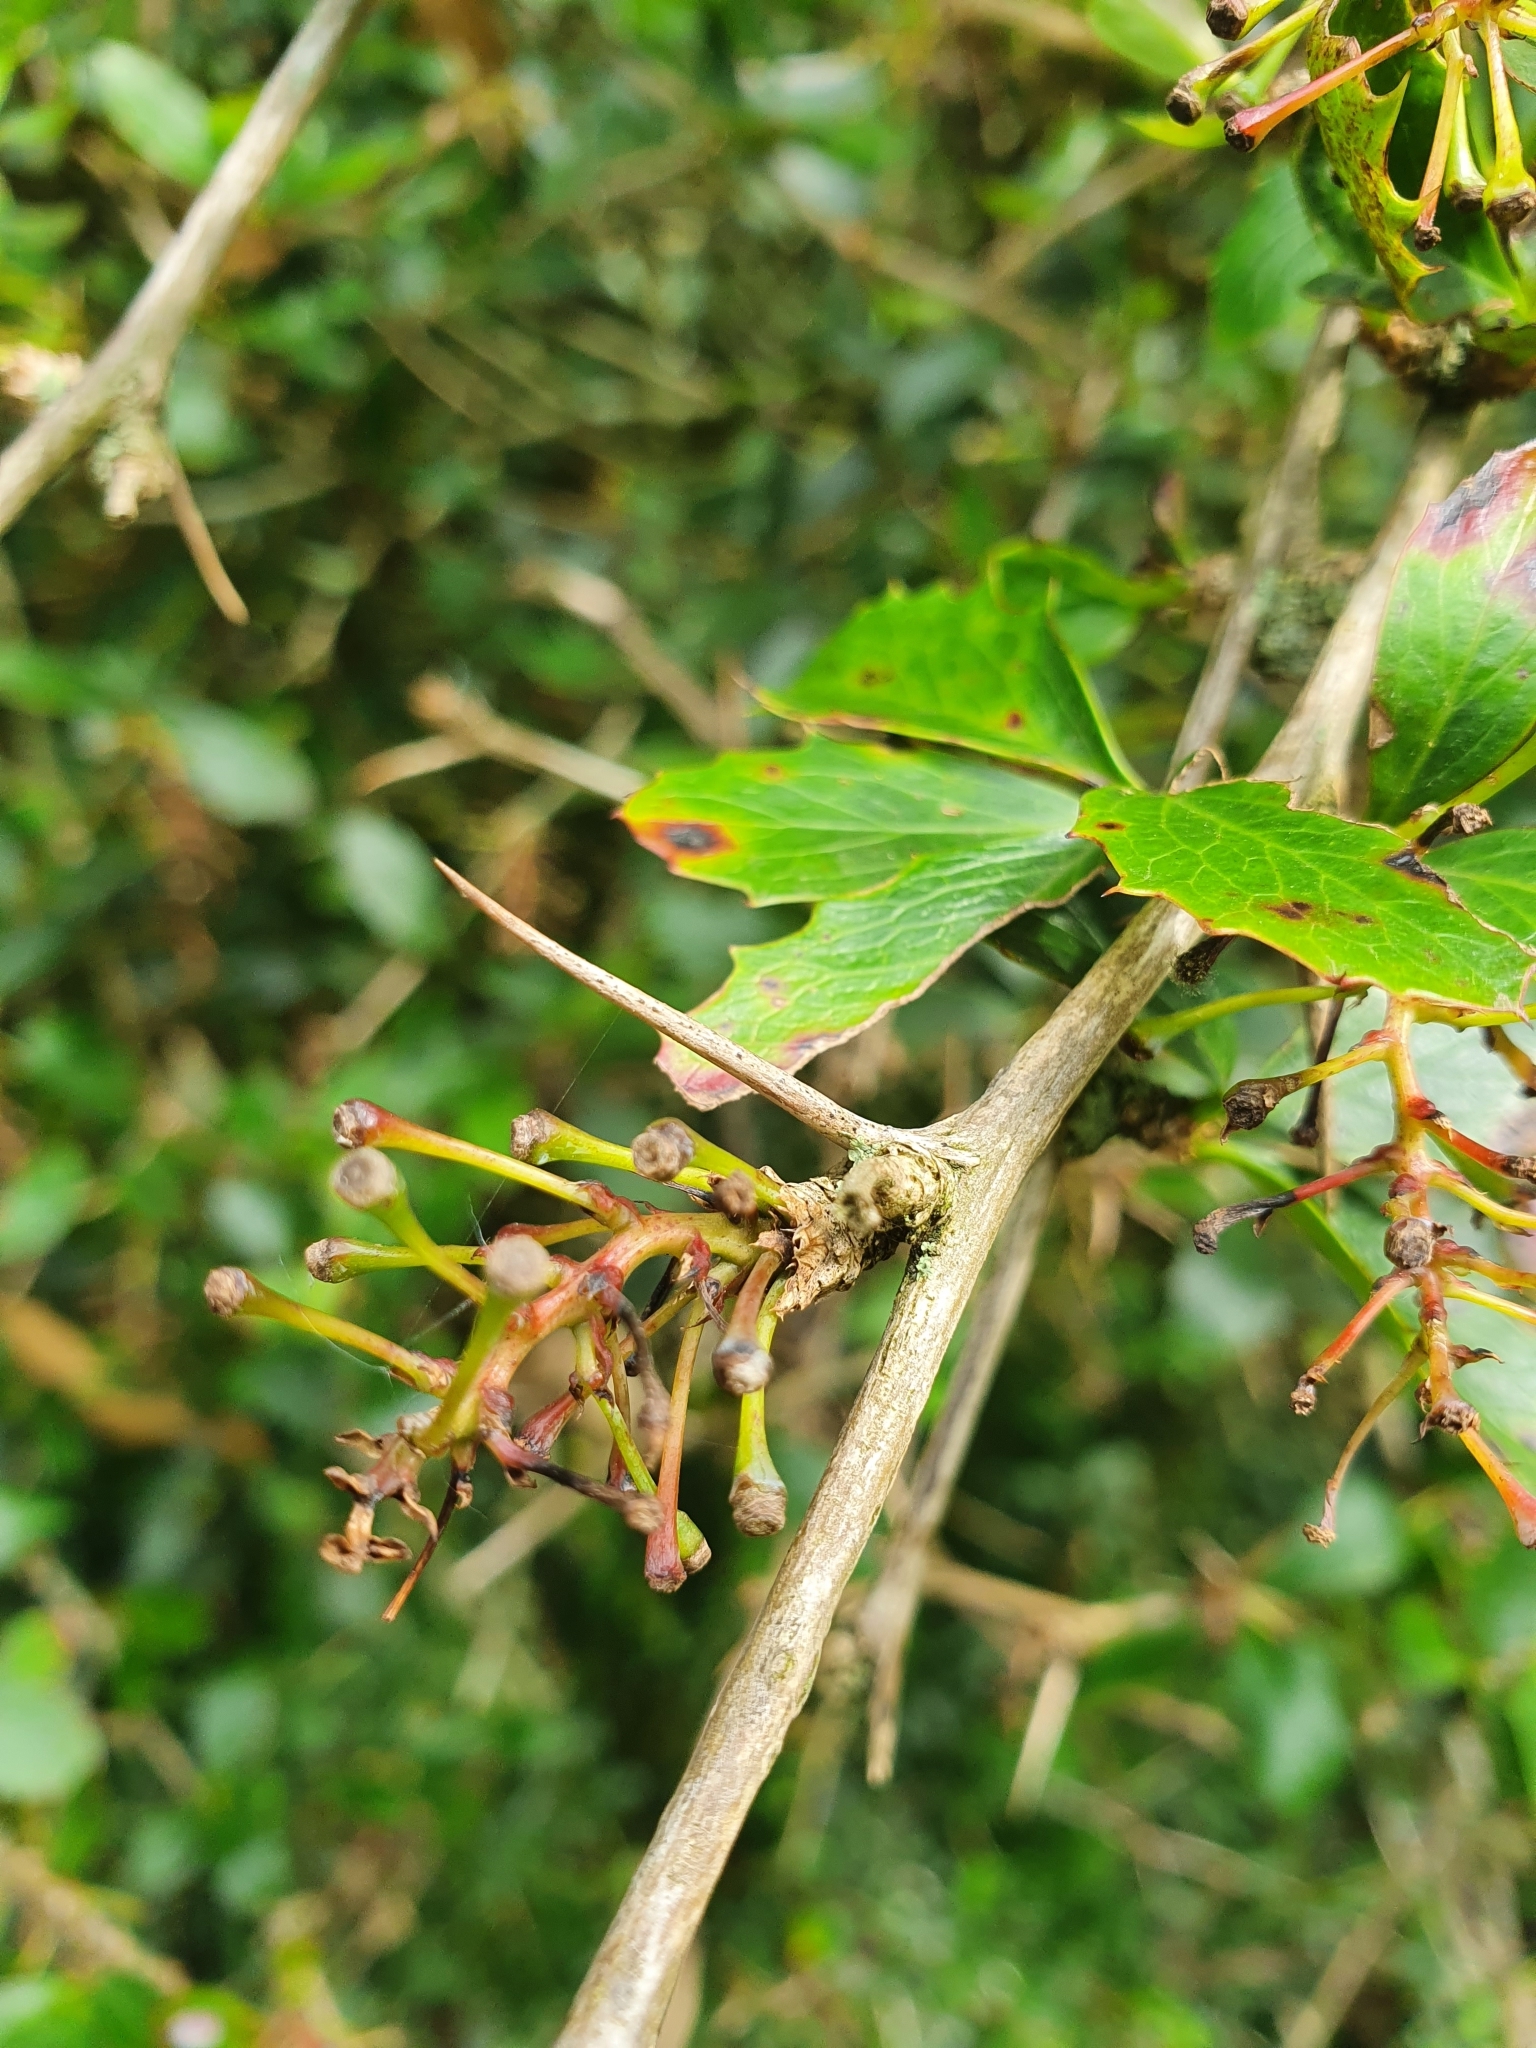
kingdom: Plantae
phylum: Tracheophyta
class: Magnoliopsida
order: Ranunculales
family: Berberidaceae
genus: Berberis
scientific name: Berberis glaucocarpa
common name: Great barberry
